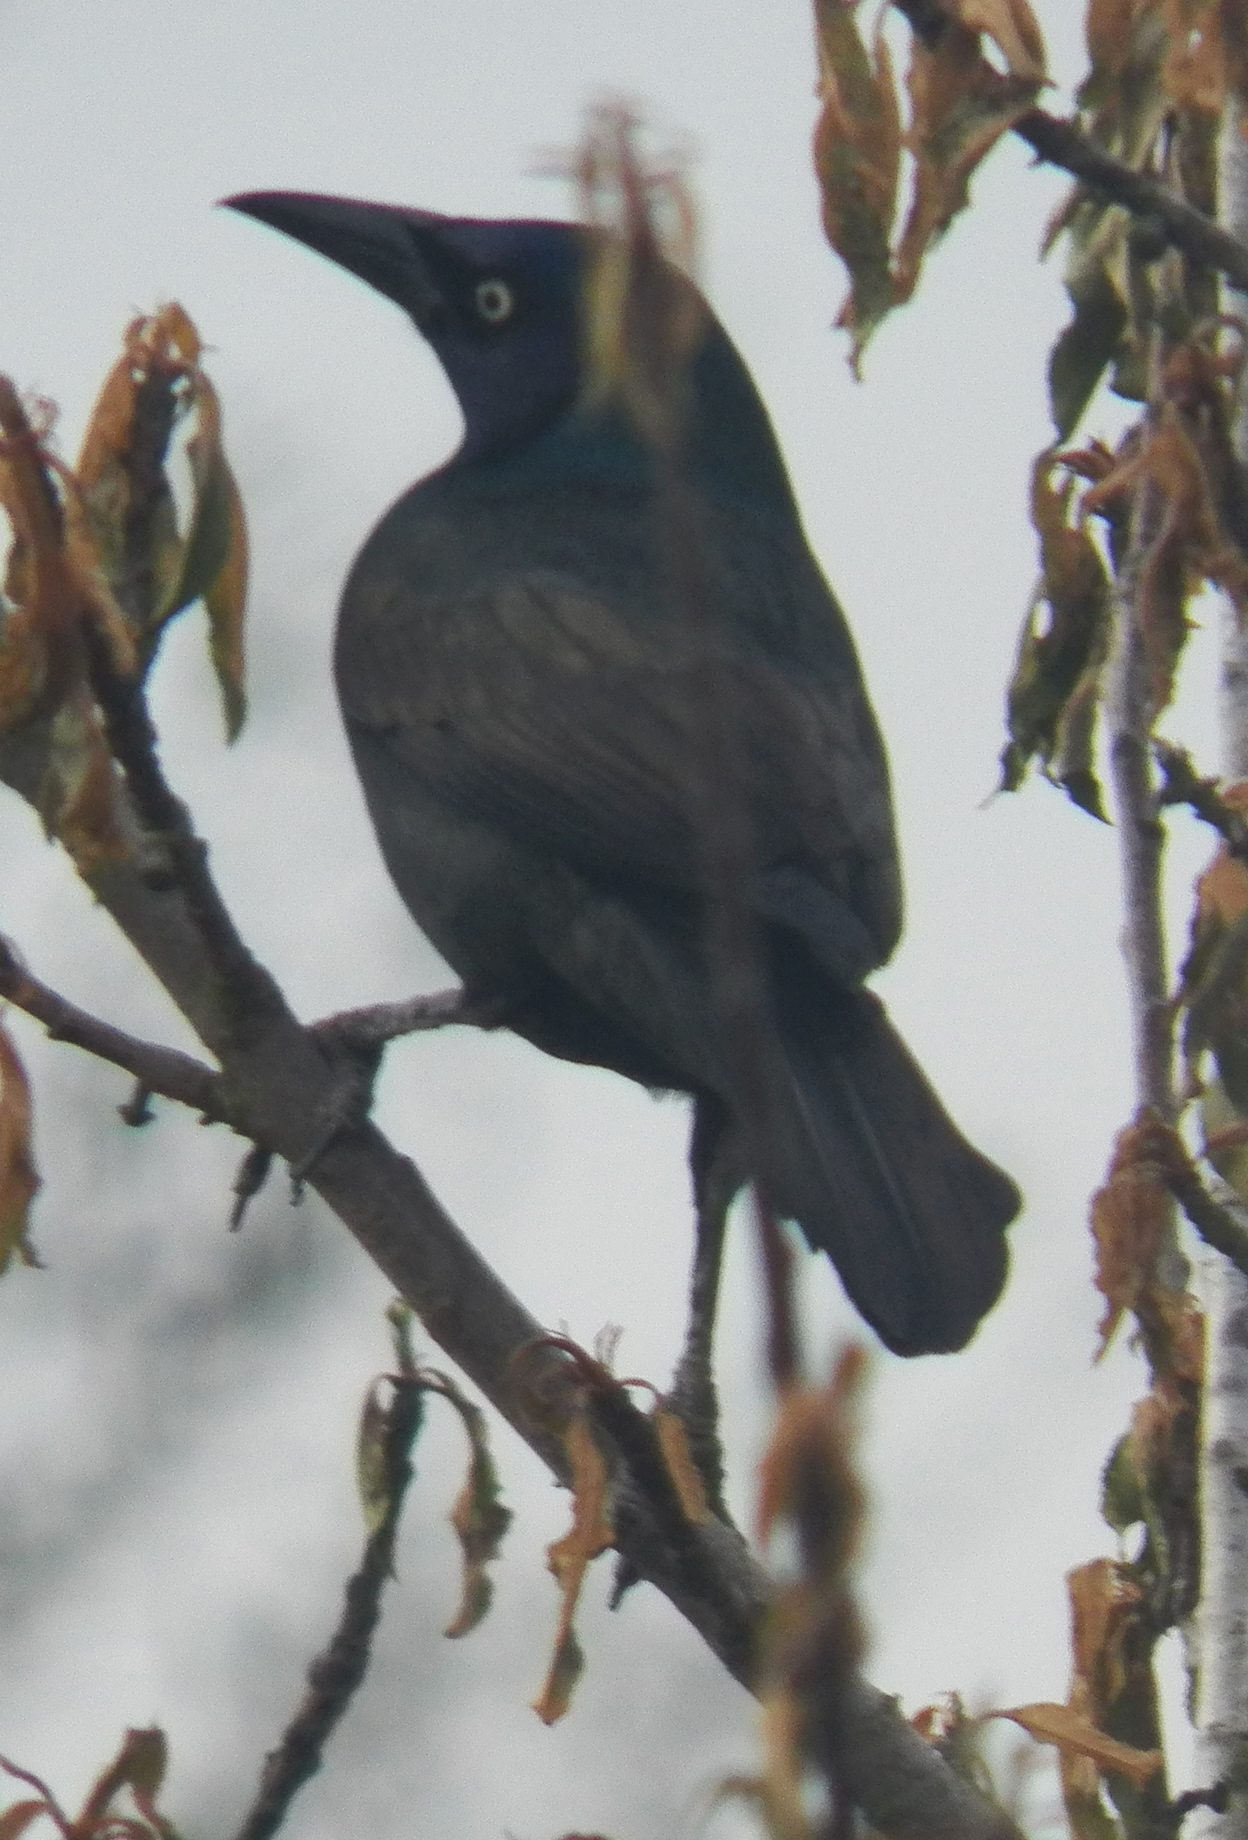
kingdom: Animalia
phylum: Chordata
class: Aves
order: Passeriformes
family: Icteridae
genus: Quiscalus
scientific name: Quiscalus quiscula
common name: Common grackle
